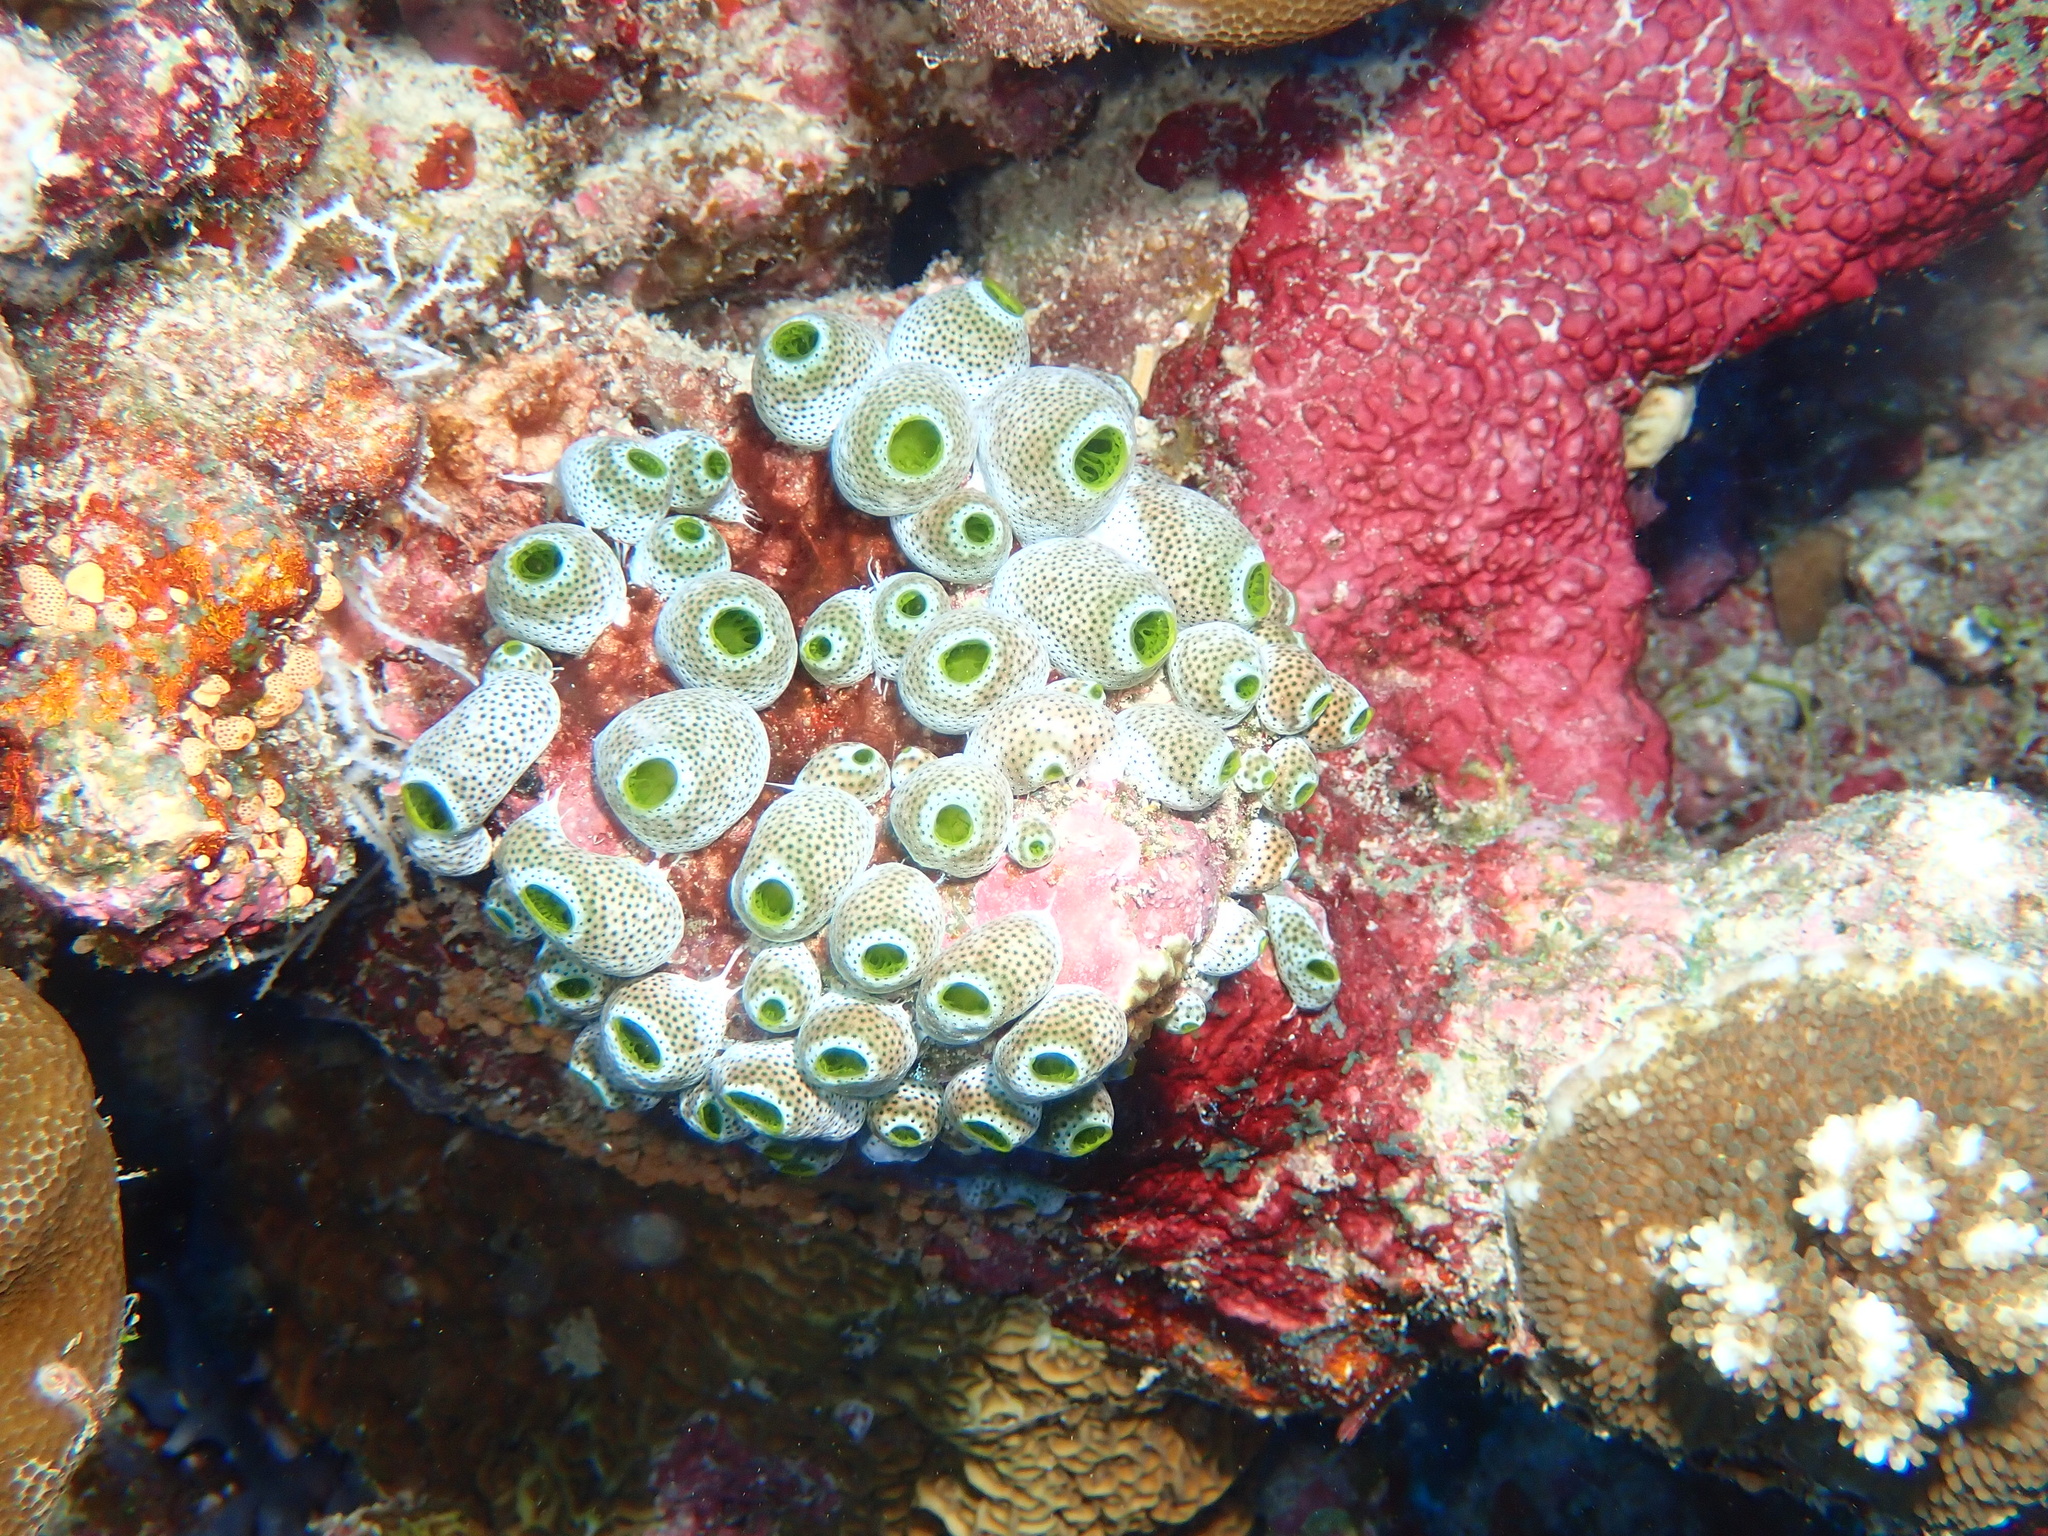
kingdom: Animalia
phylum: Chordata
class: Ascidiacea
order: Aplousobranchia
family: Didemnidae
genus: Didemnum
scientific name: Didemnum molle
